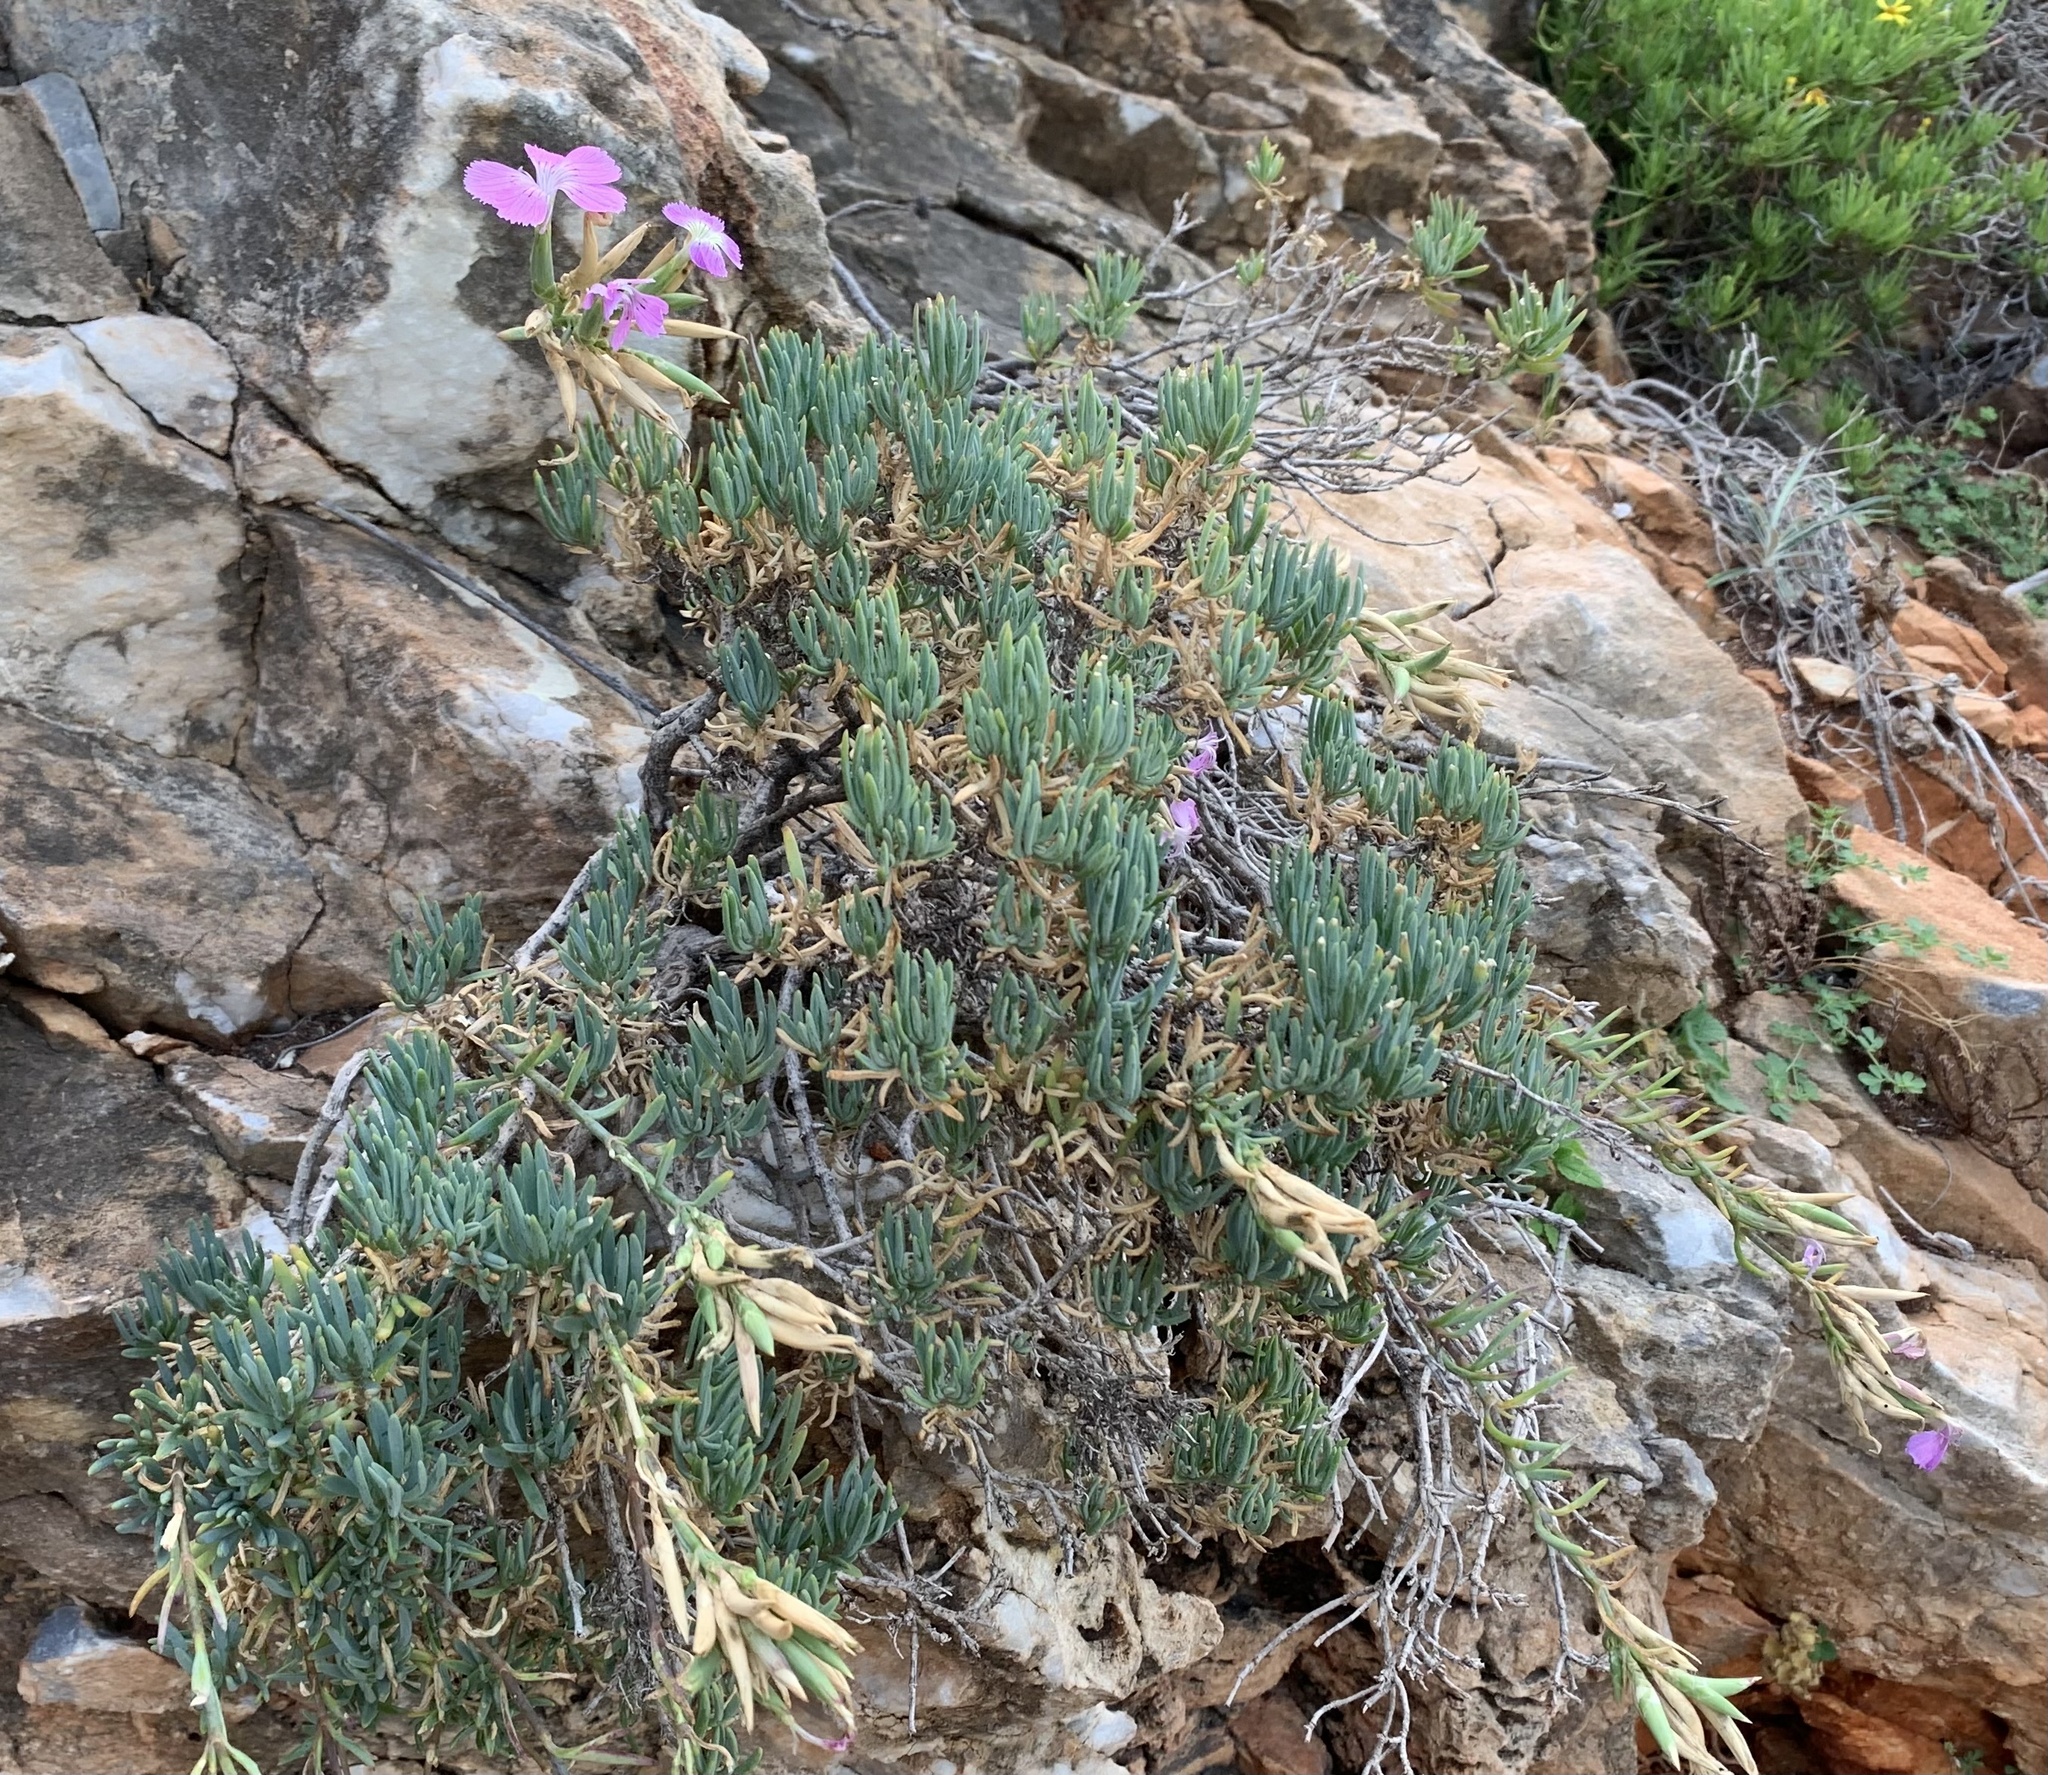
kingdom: Plantae
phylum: Tracheophyta
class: Magnoliopsida
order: Caryophyllales
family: Caryophyllaceae
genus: Dianthus
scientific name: Dianthus fruticosus
